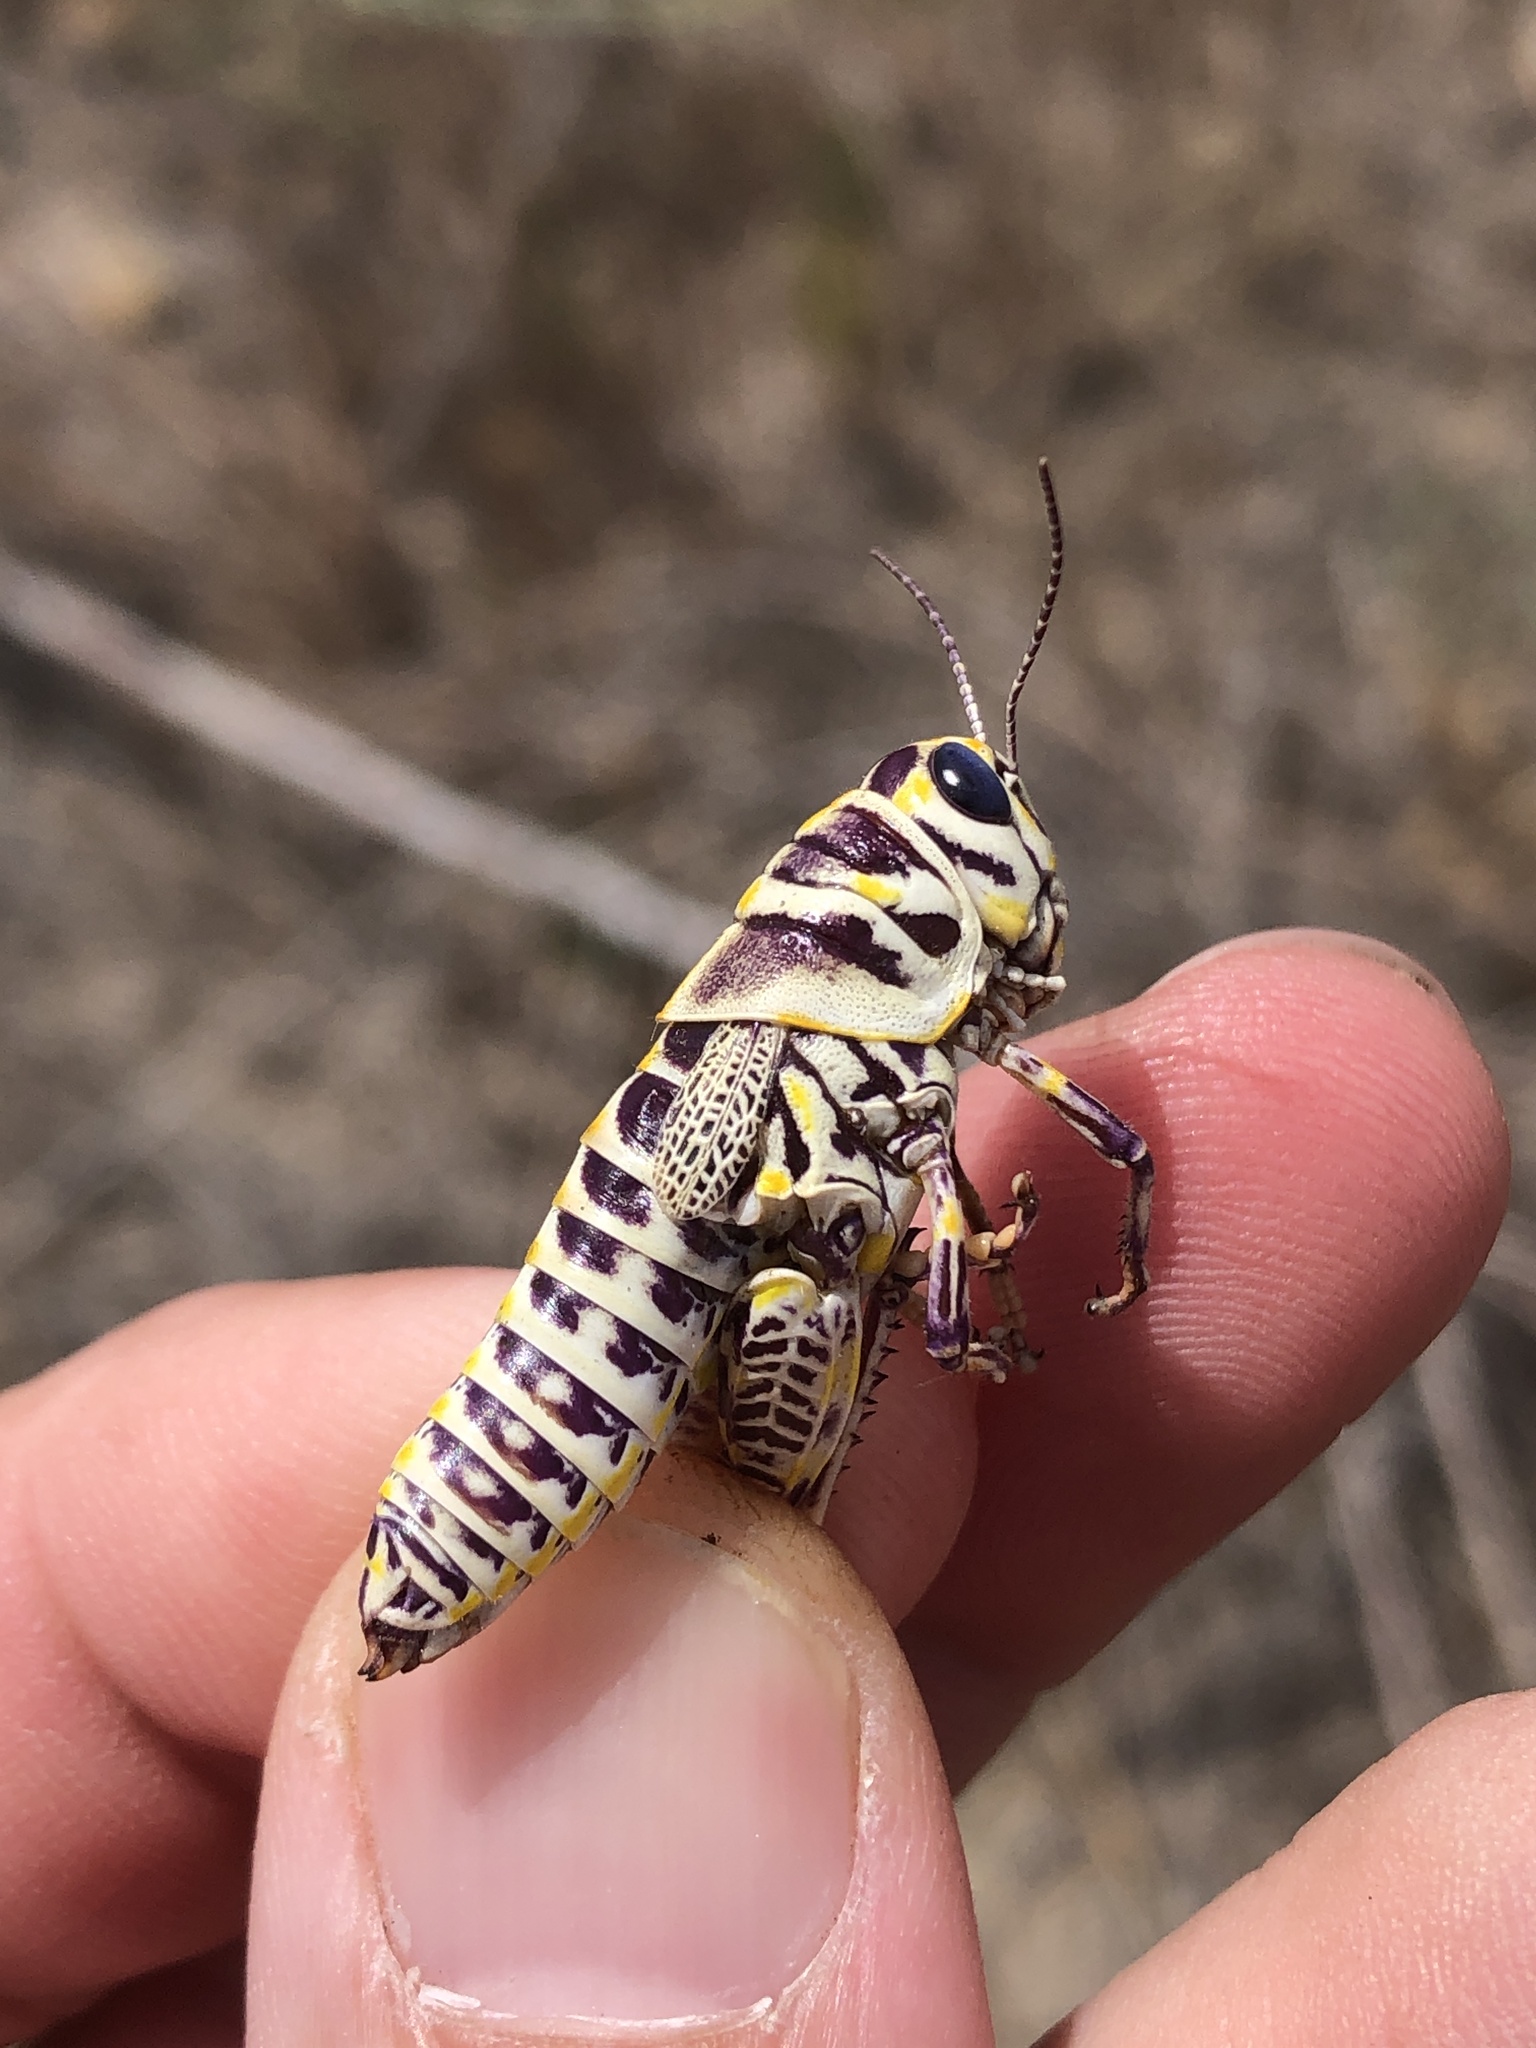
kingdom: Animalia
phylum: Arthropoda
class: Insecta
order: Orthoptera
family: Acrididae
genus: Dactylotum
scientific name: Dactylotum bicolor
